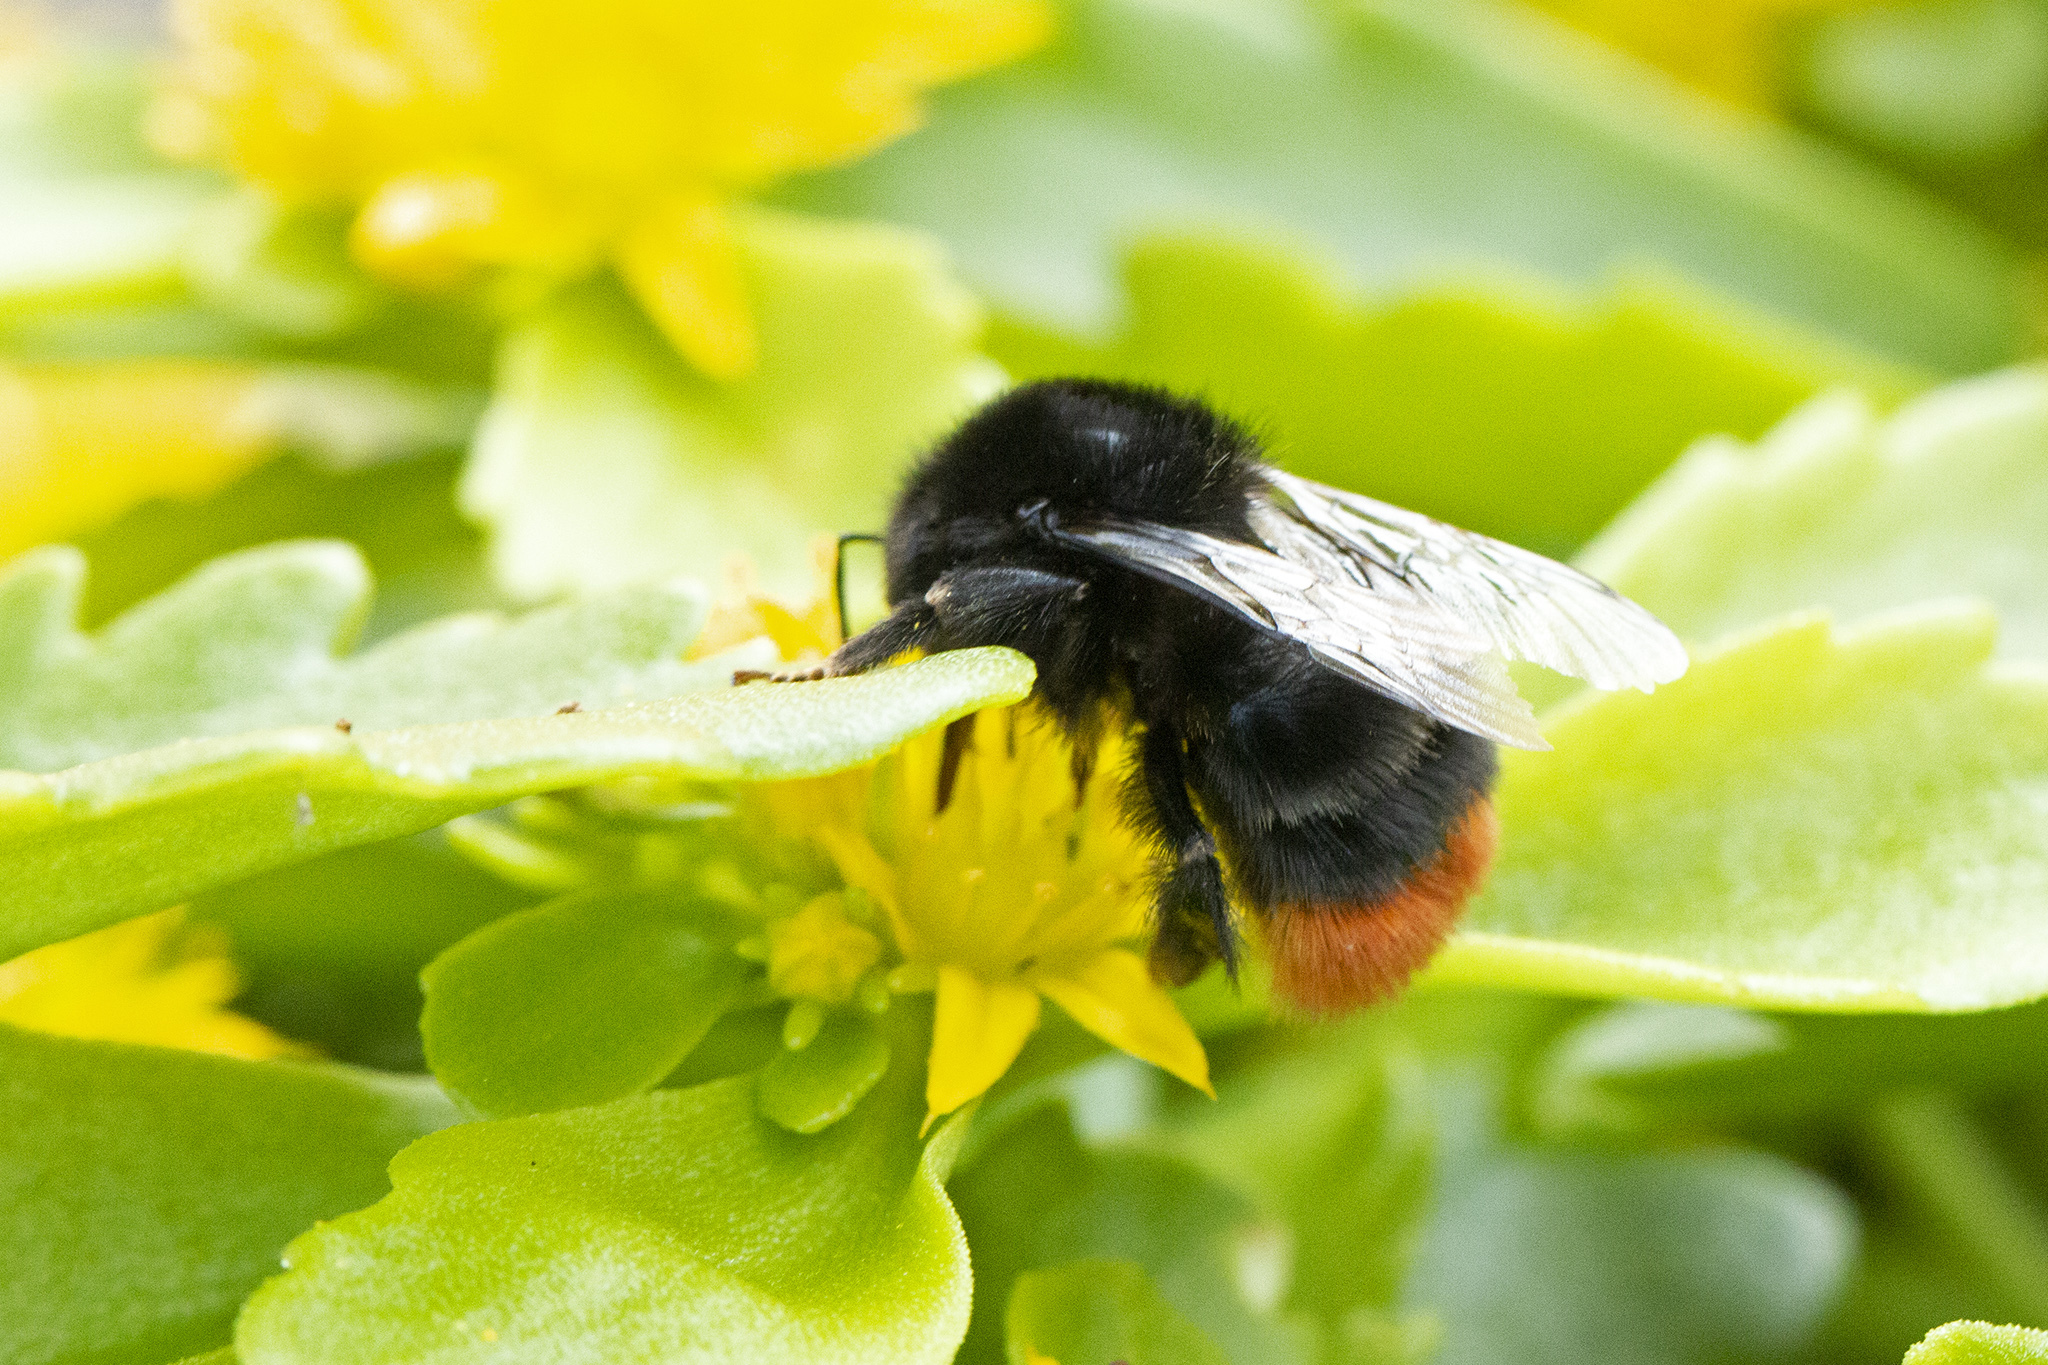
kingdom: Animalia
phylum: Arthropoda
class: Insecta
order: Hymenoptera
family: Apidae
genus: Bombus
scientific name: Bombus lapidarius
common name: Large red-tailed humble-bee
